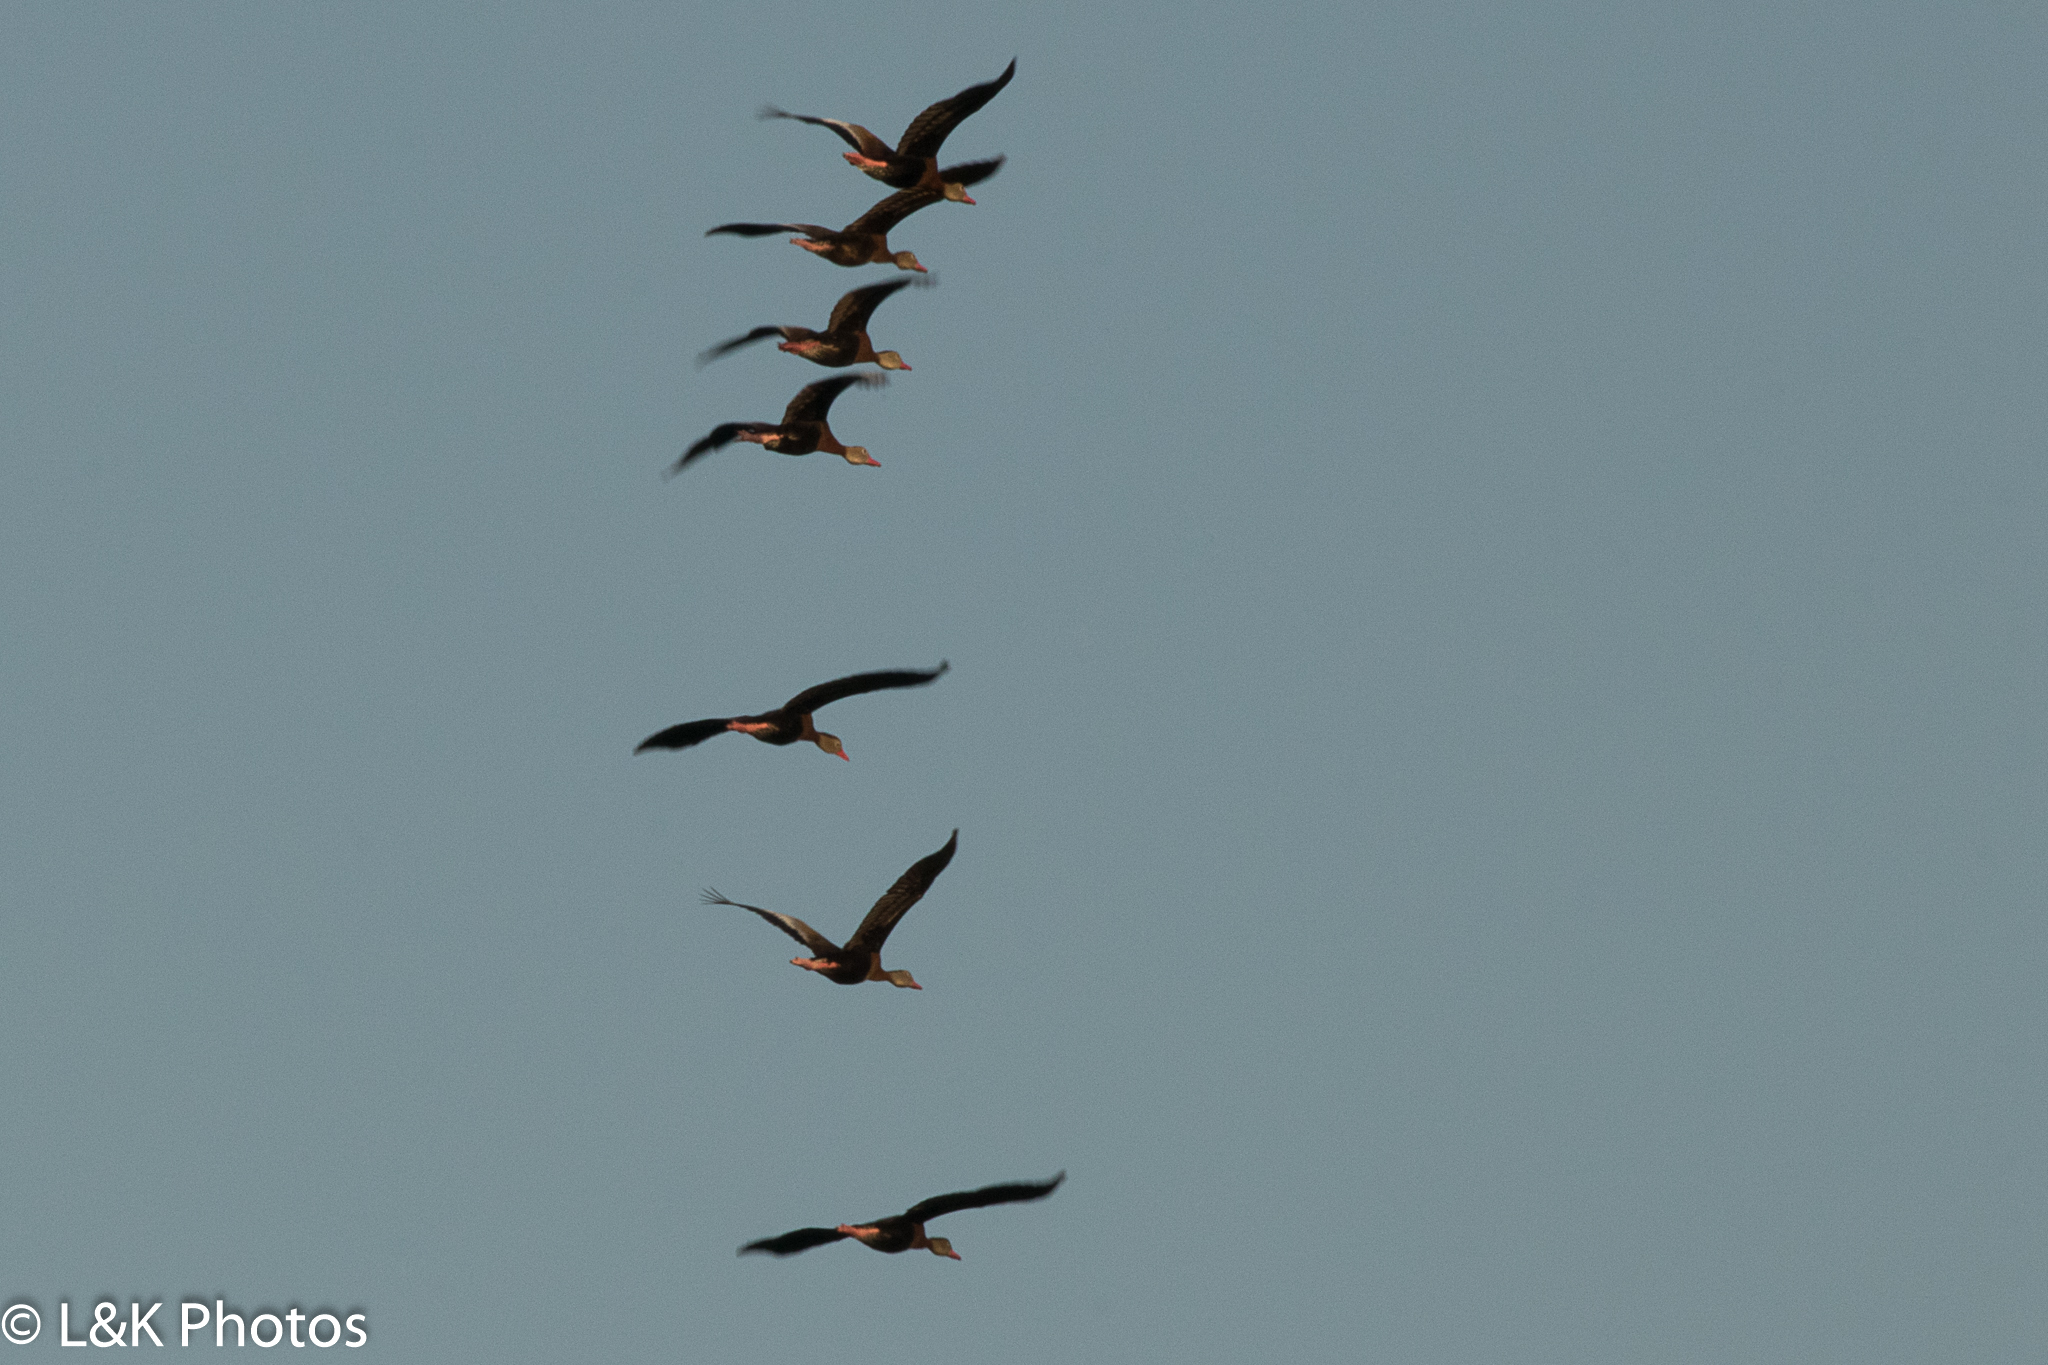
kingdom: Animalia
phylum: Chordata
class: Aves
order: Anseriformes
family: Anatidae
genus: Dendrocygna
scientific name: Dendrocygna autumnalis
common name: Black-bellied whistling duck
